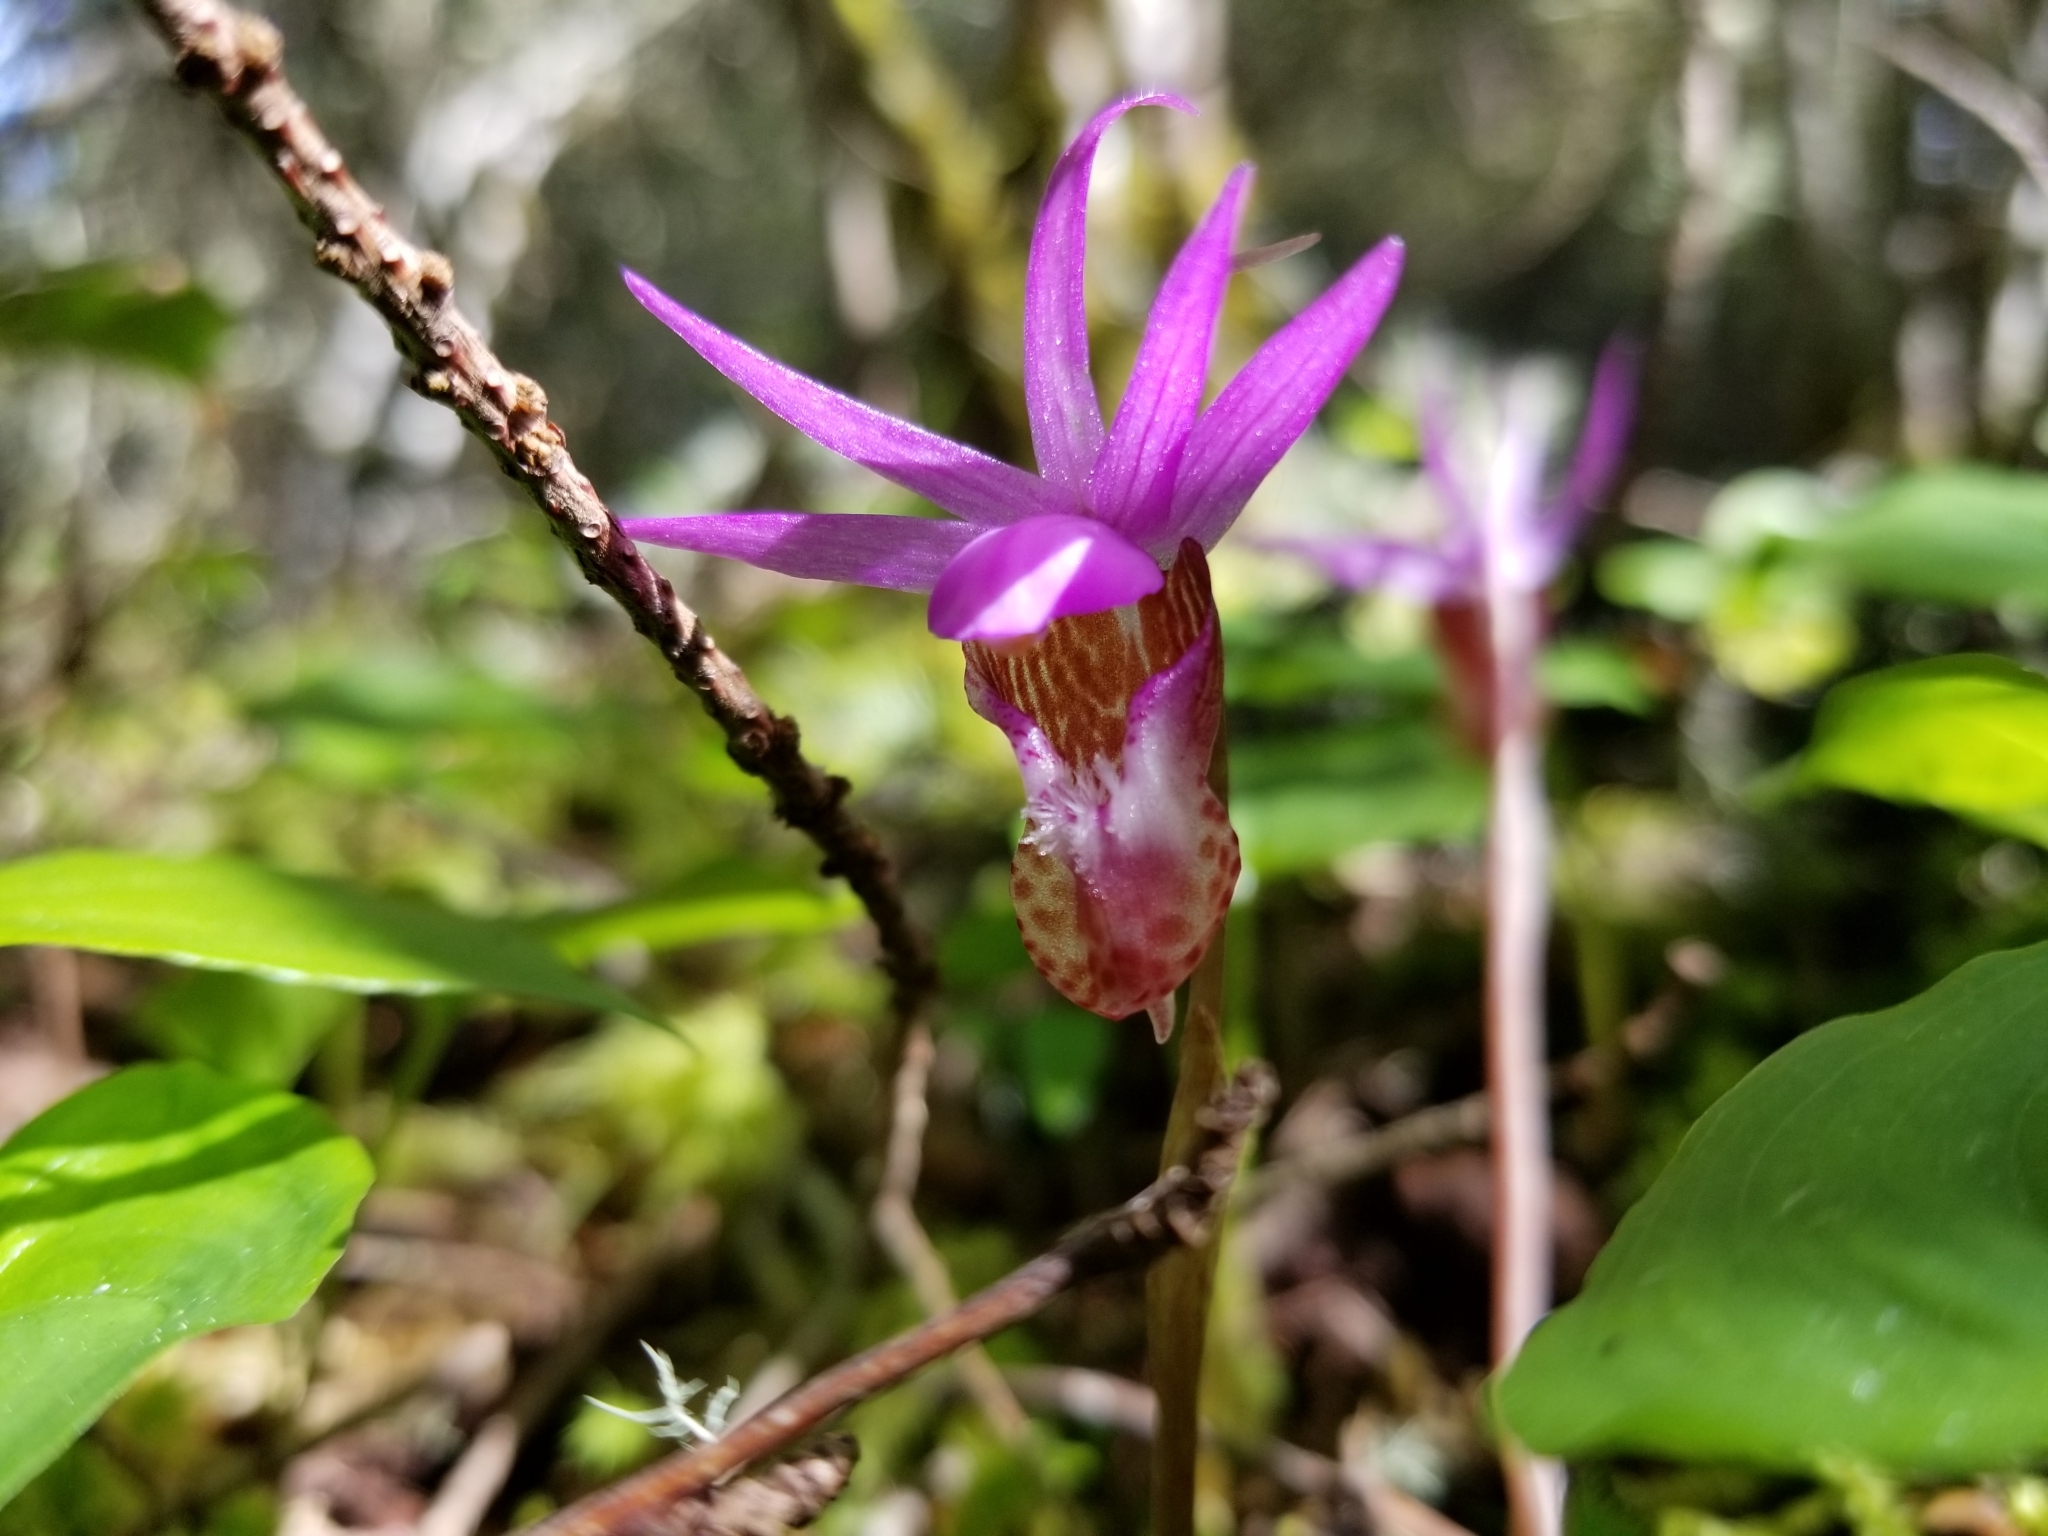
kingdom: Plantae
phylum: Tracheophyta
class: Liliopsida
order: Asparagales
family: Orchidaceae
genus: Calypso
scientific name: Calypso bulbosa
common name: Calypso
